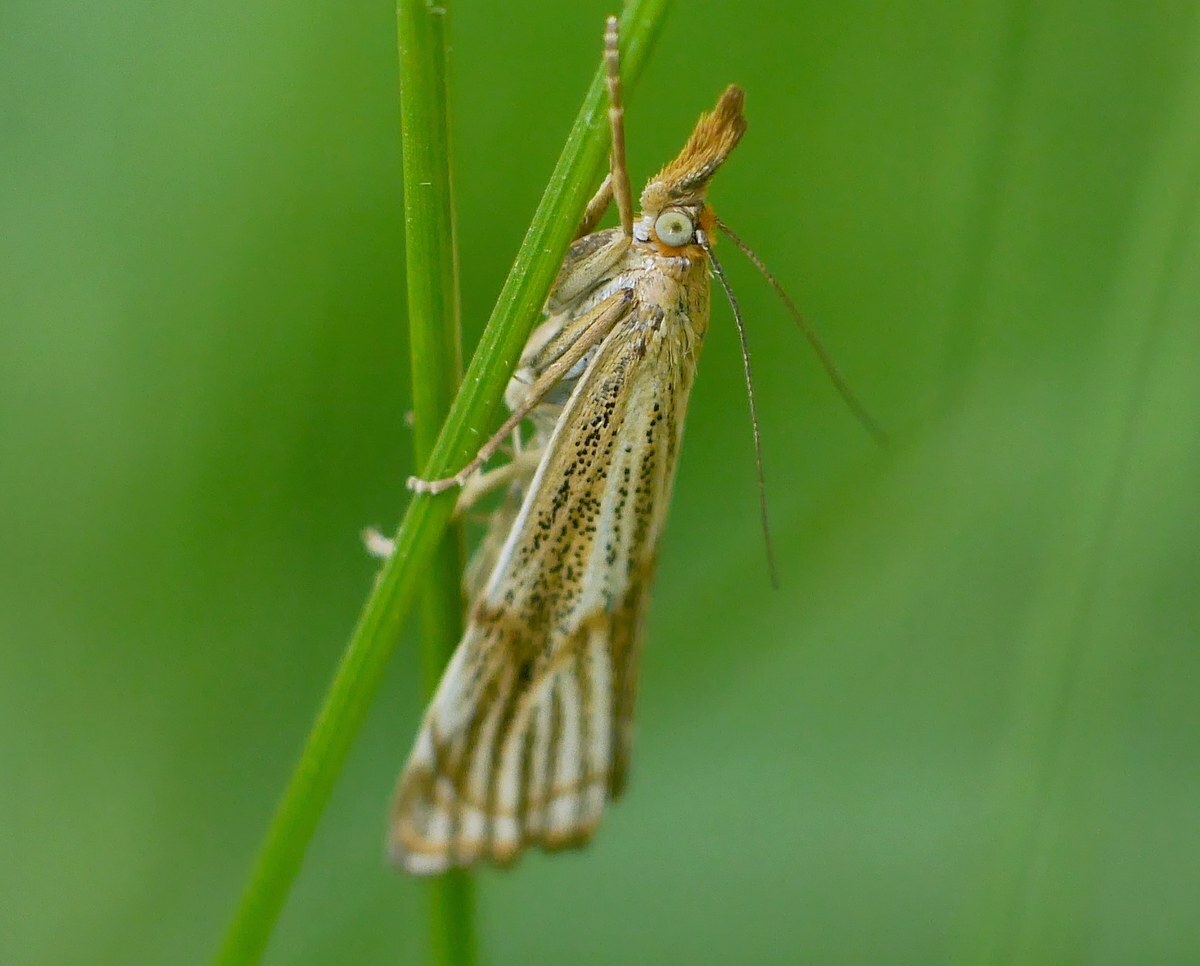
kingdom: Animalia
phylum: Arthropoda
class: Insecta
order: Lepidoptera
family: Crambidae
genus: Thisanotia
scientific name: Thisanotia chrysonuchella
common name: Powdered grass-veneer
